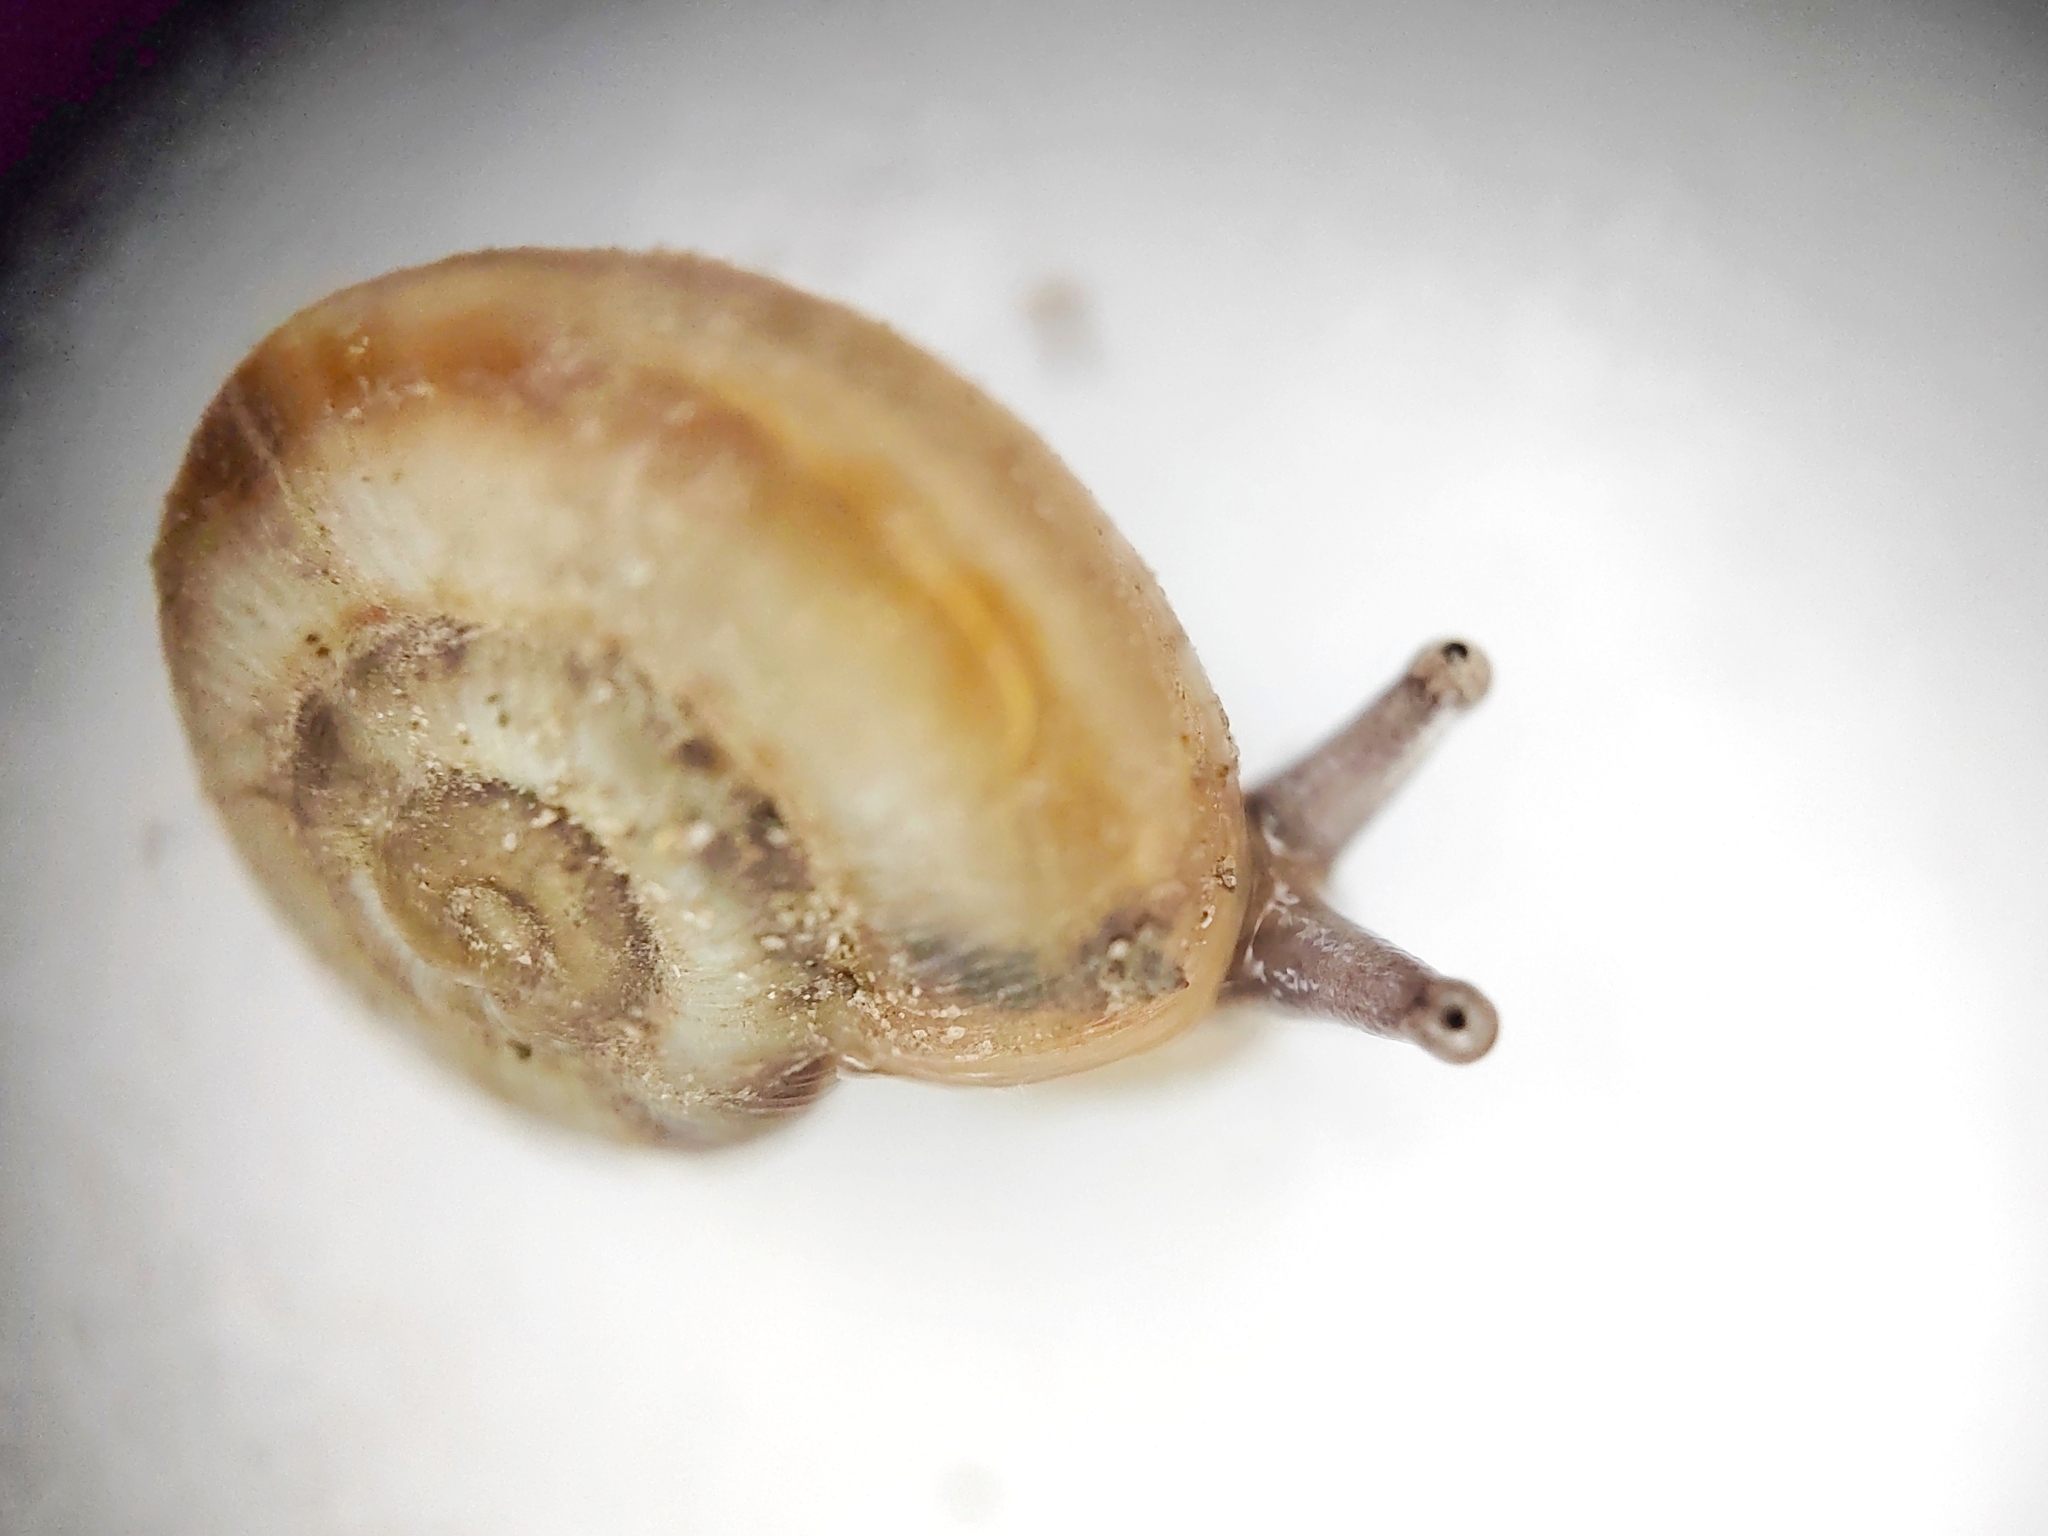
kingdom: Animalia
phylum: Mollusca
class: Gastropoda
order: Stylommatophora
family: Geomitridae
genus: Xeropicta
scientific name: Xeropicta derbentina
